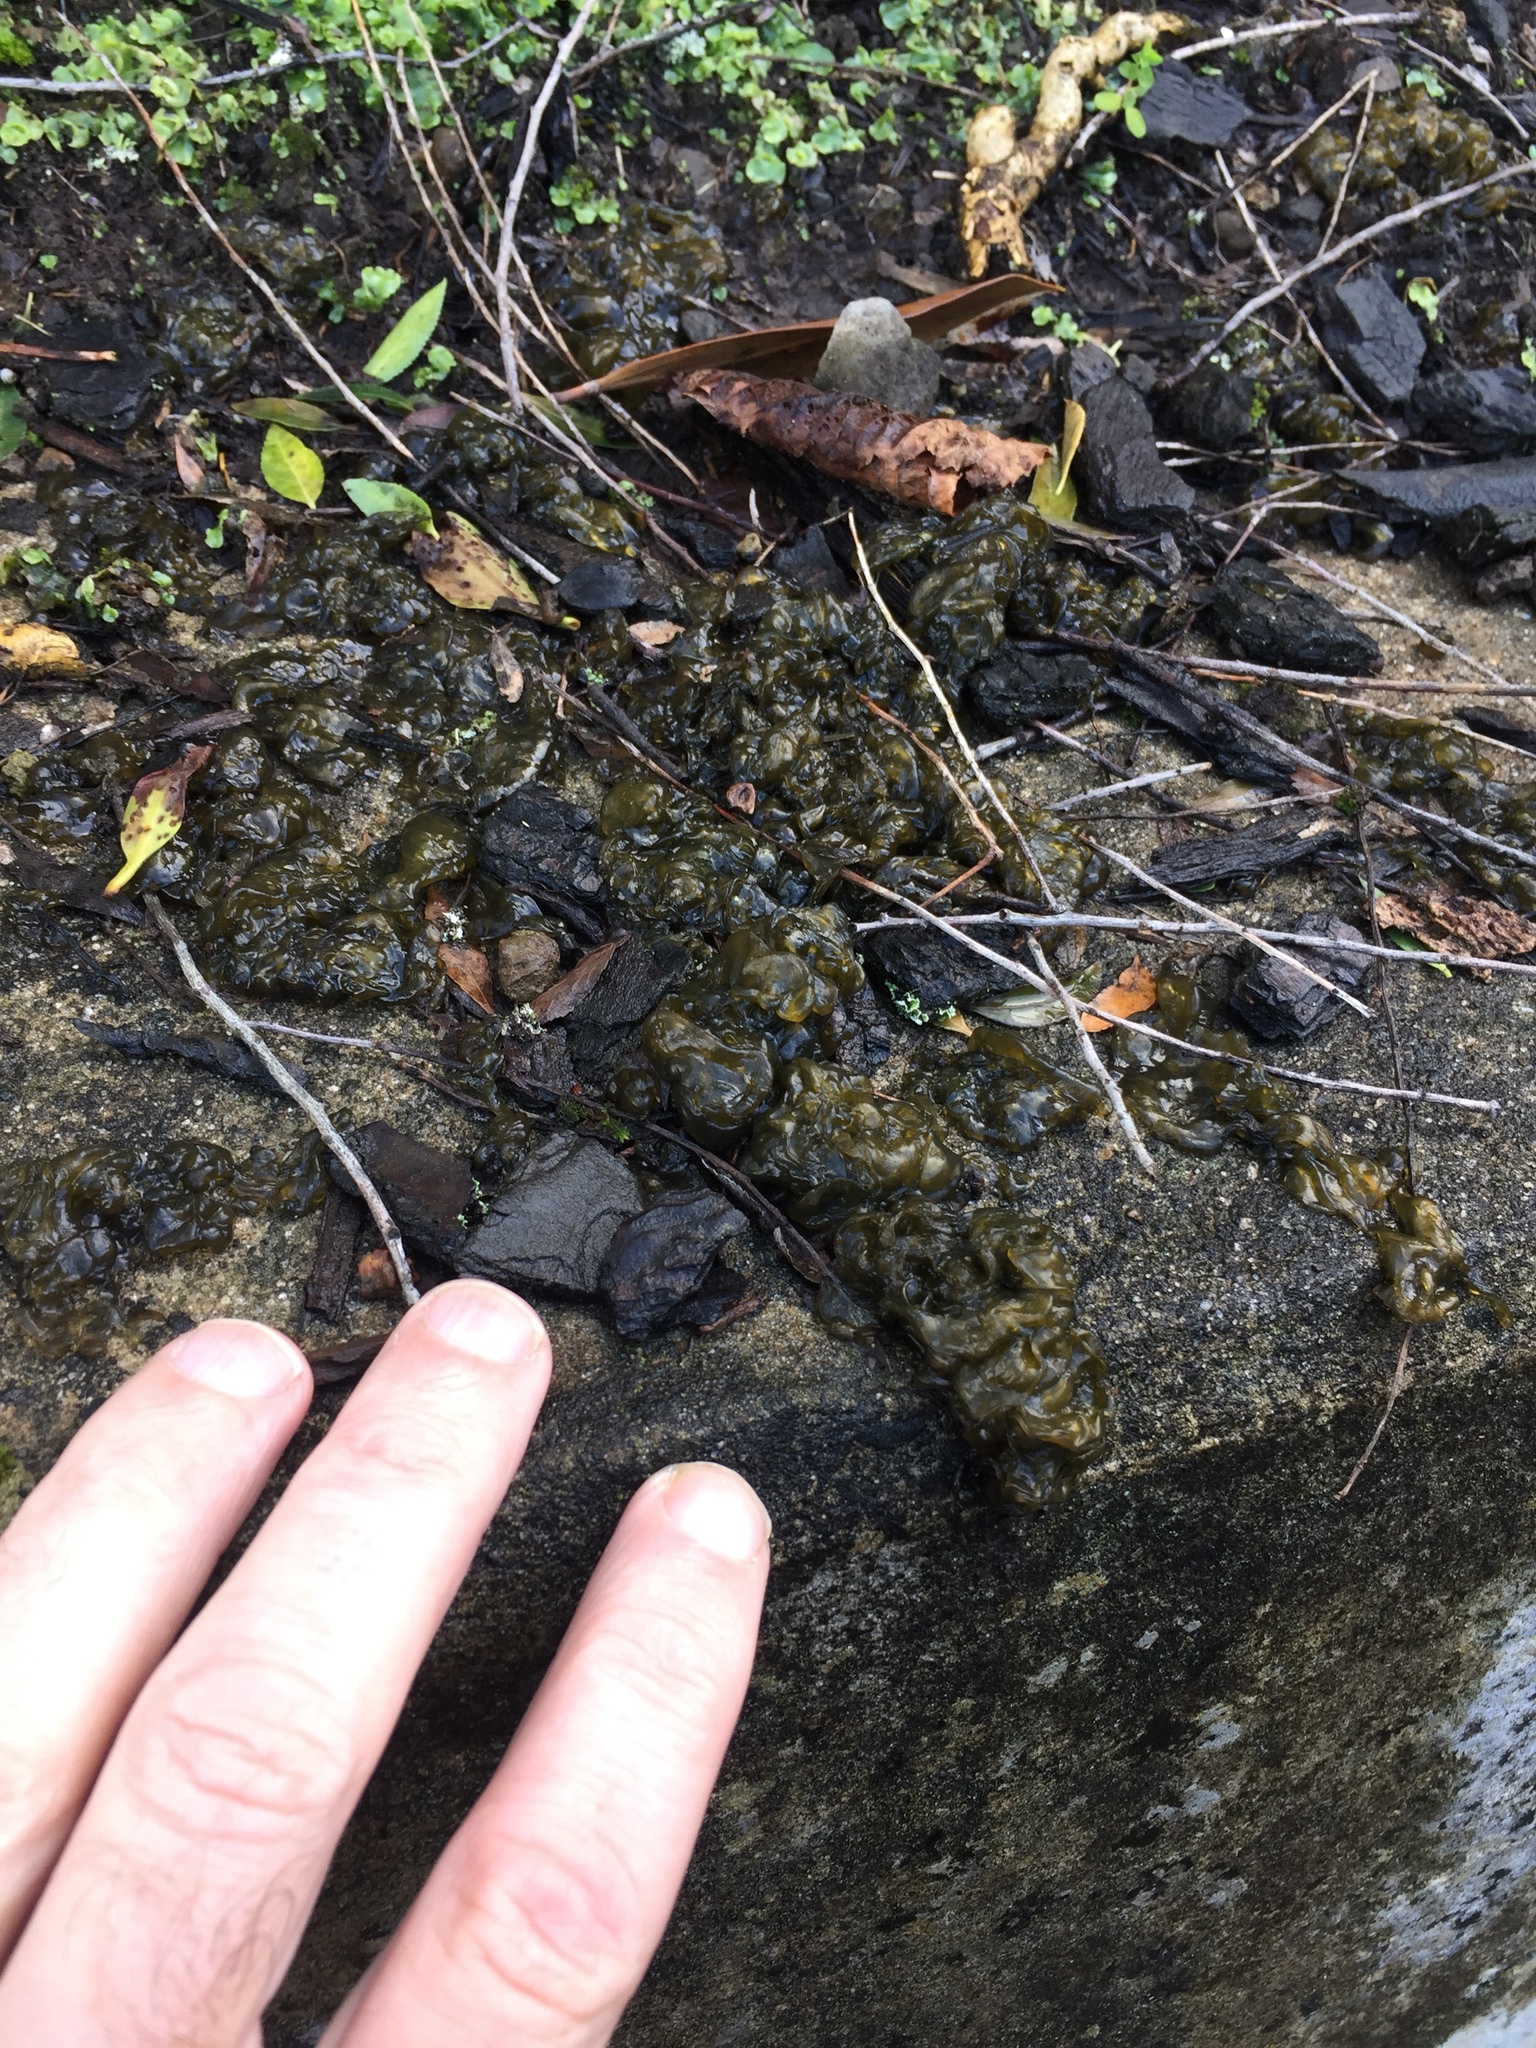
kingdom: Bacteria
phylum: Cyanobacteria
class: Cyanobacteriia
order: Cyanobacteriales
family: Nostocaceae
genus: Nostoc
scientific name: Nostoc commune
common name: Star jelly
